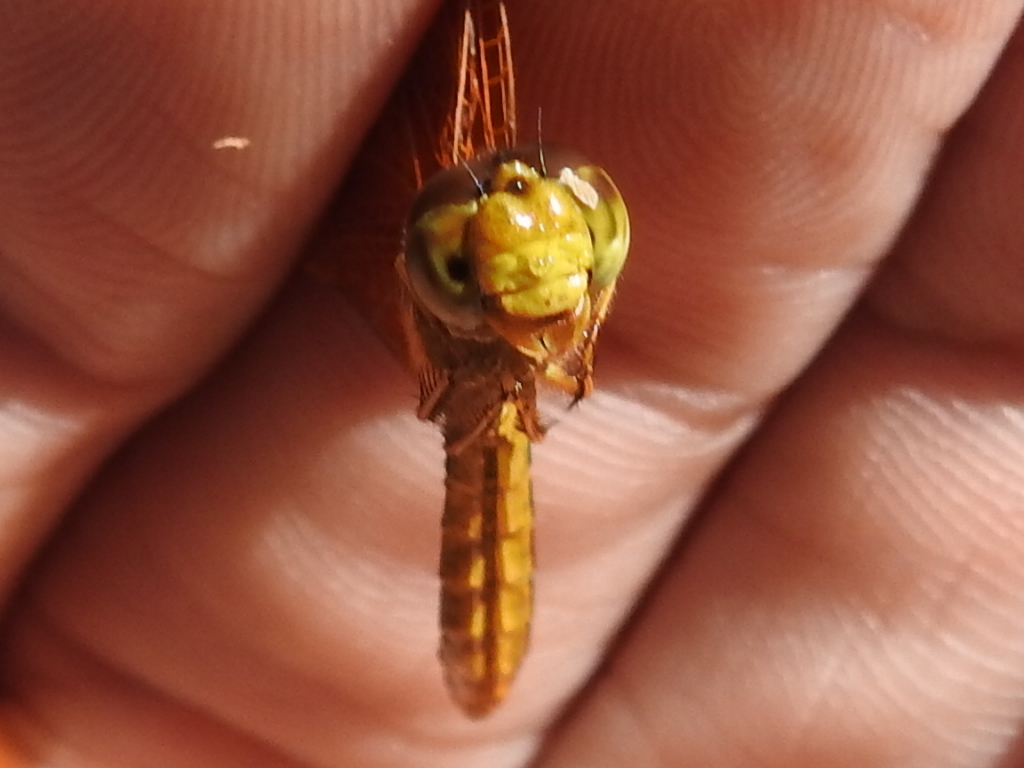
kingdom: Animalia
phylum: Arthropoda
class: Insecta
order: Odonata
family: Libellulidae
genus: Perithemis
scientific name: Perithemis intensa
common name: Mexican amberwing
